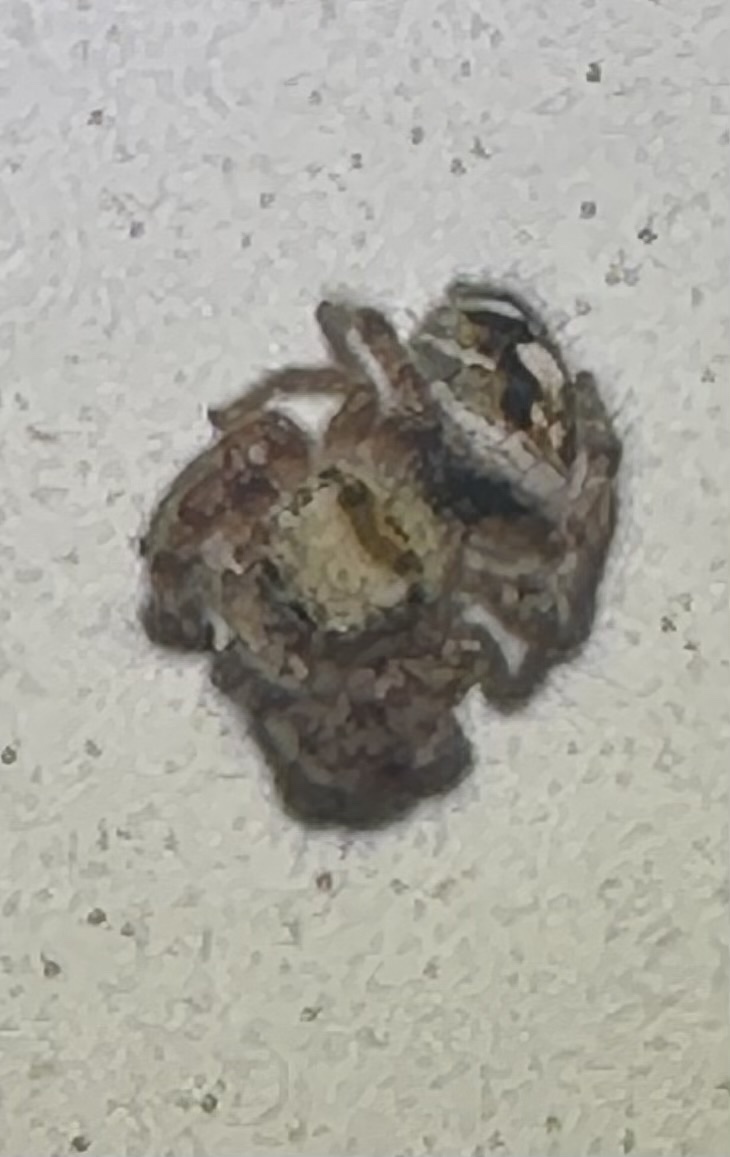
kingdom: Animalia
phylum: Arthropoda
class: Arachnida
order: Araneae
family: Salticidae
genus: Phidippus
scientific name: Phidippus audax
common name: Bold jumper
